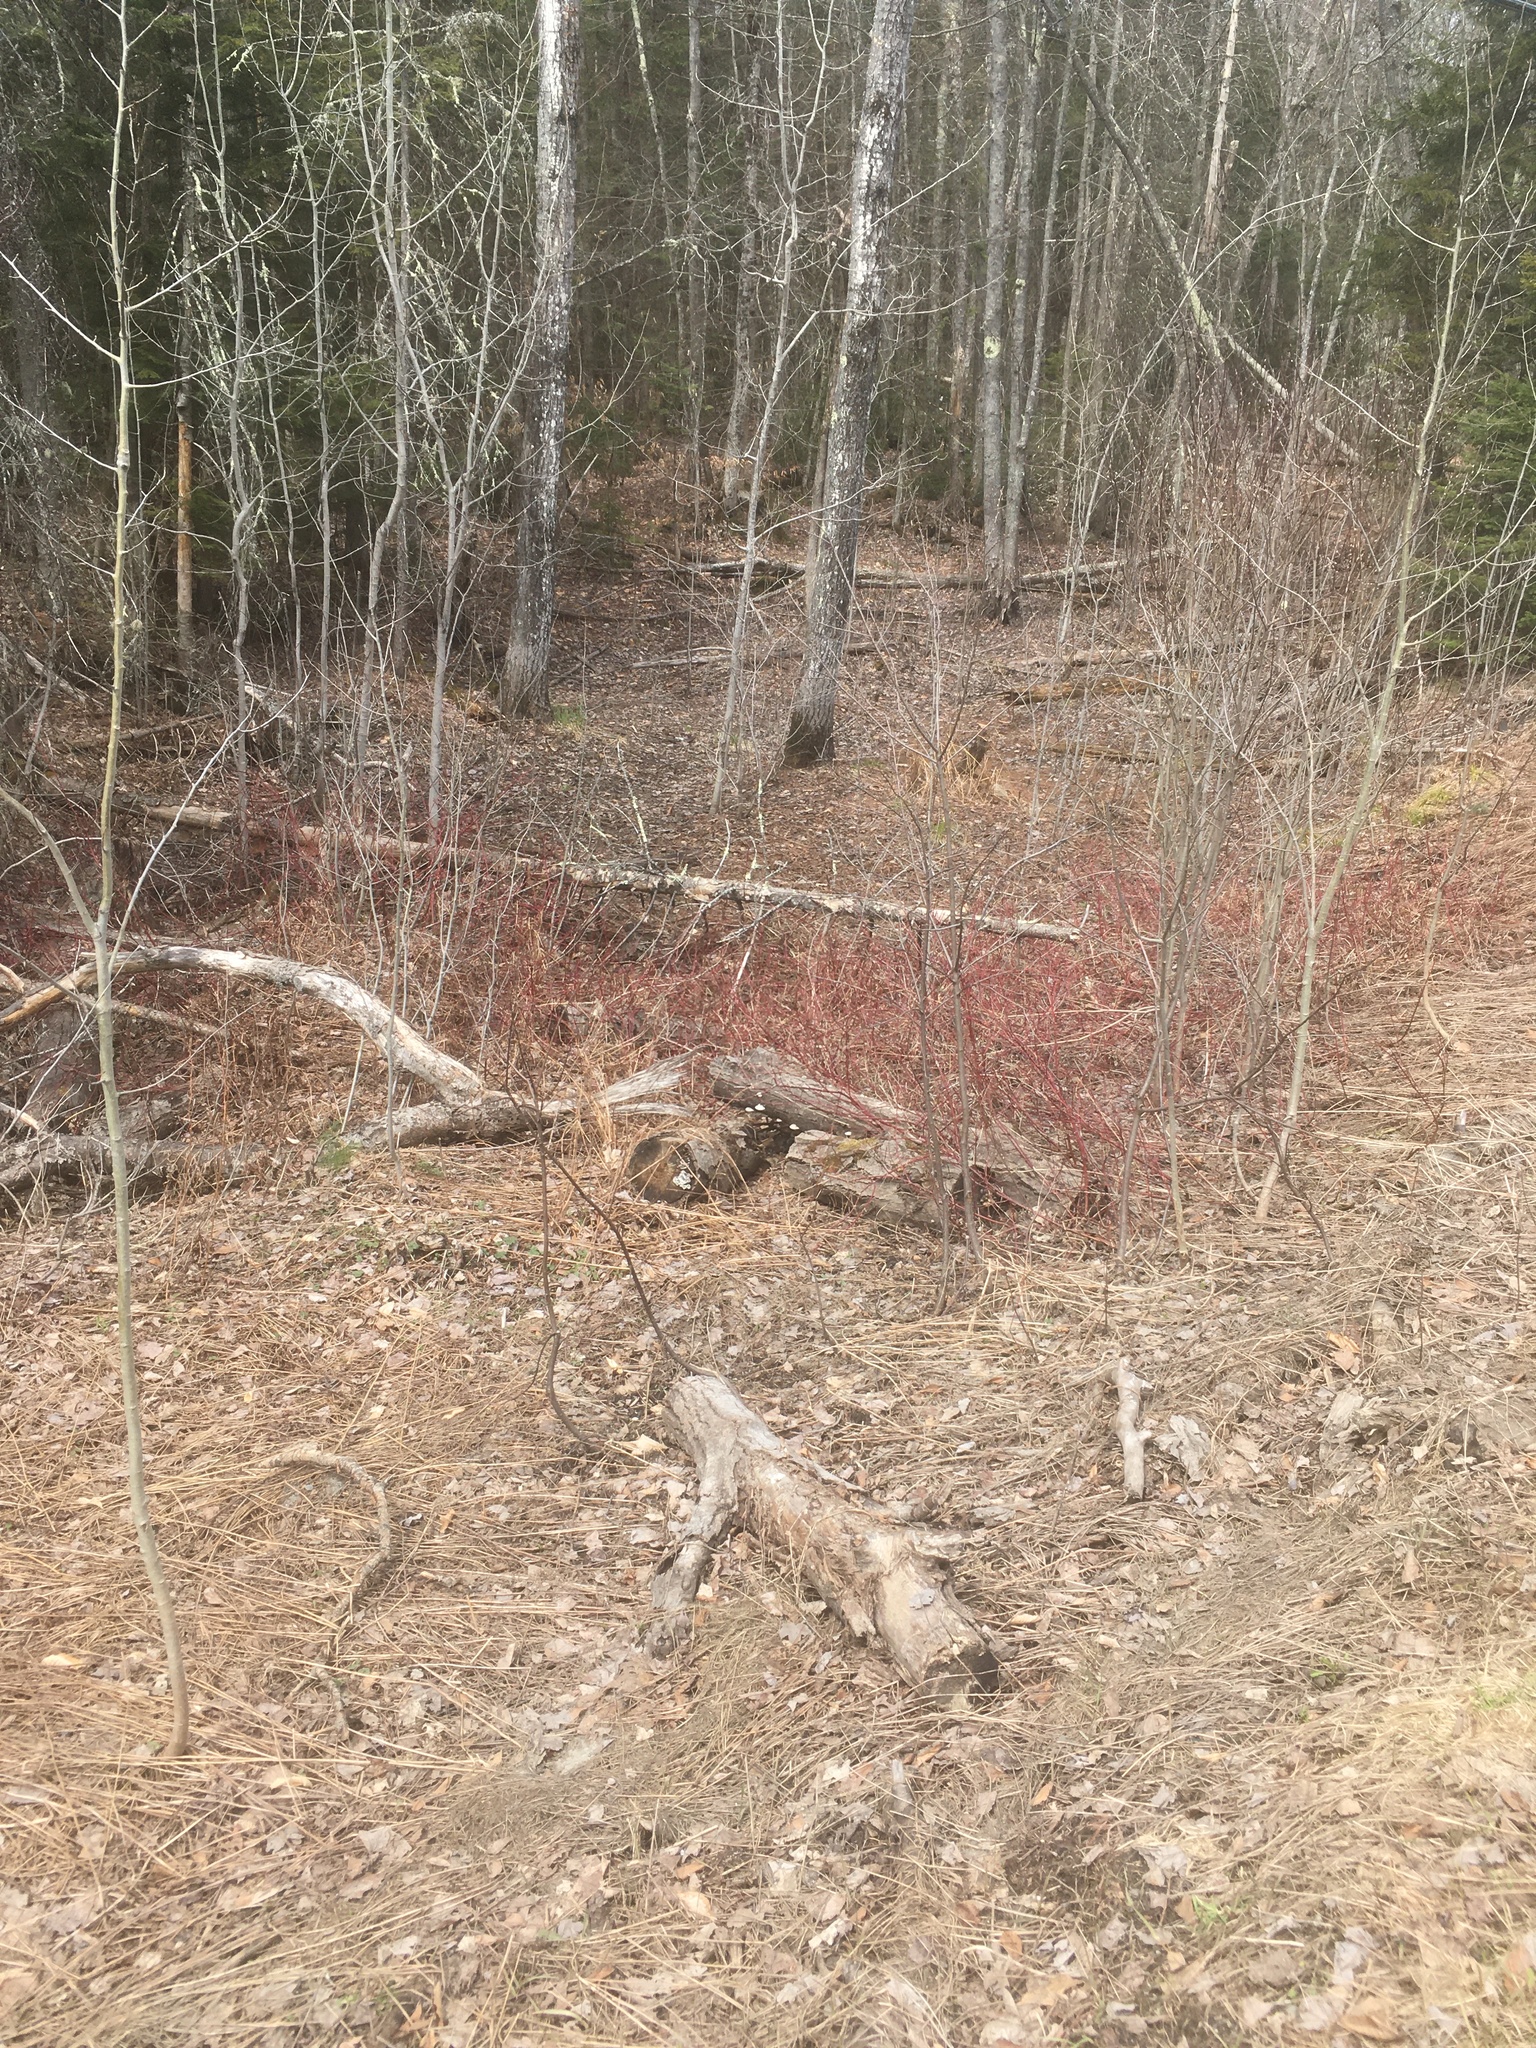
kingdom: Plantae
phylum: Tracheophyta
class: Magnoliopsida
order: Cornales
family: Cornaceae
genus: Cornus
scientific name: Cornus sericea
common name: Red-osier dogwood
